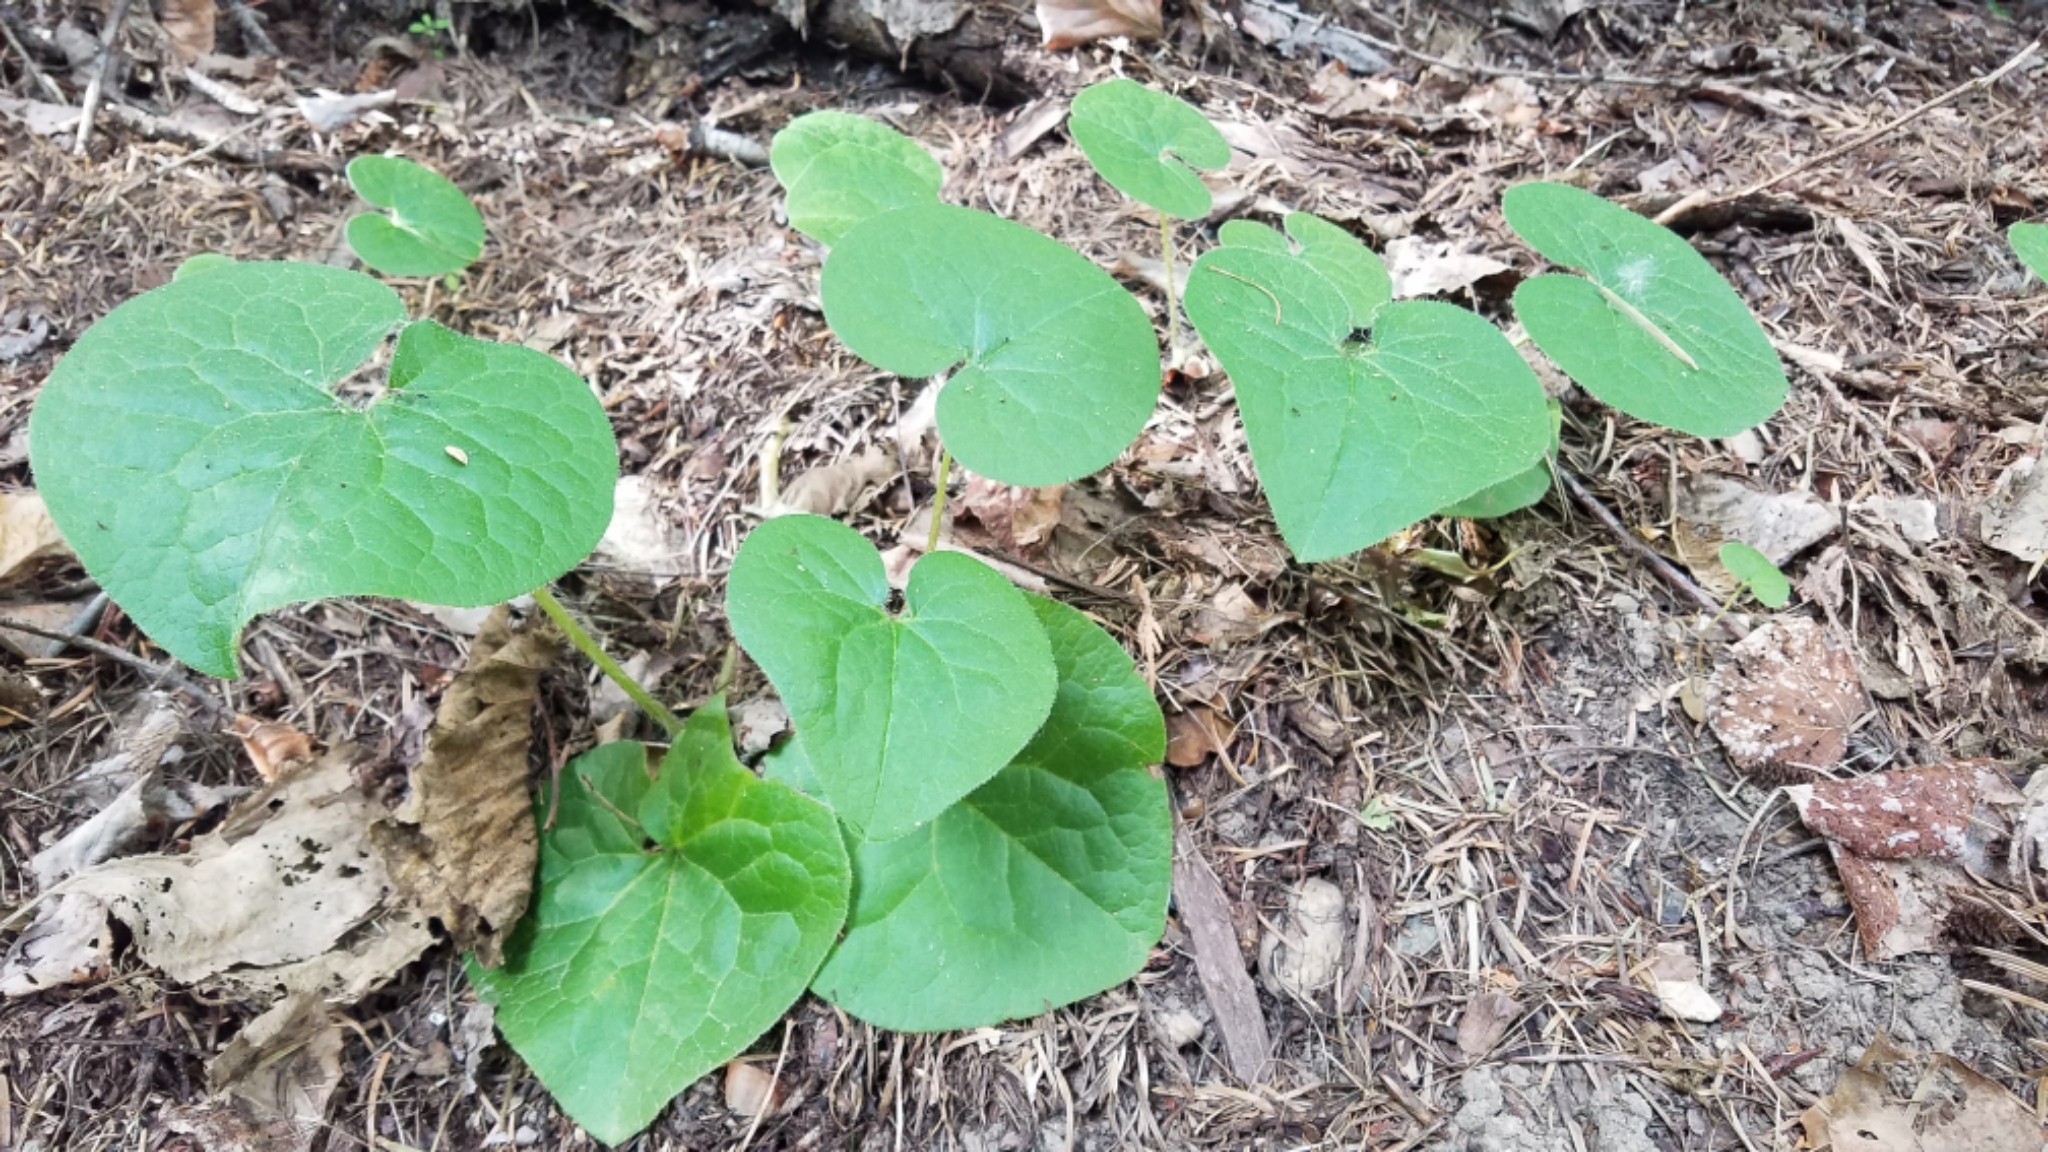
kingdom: Plantae
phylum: Tracheophyta
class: Magnoliopsida
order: Piperales
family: Aristolochiaceae
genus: Asarum
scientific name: Asarum caudatum
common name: Wild ginger
